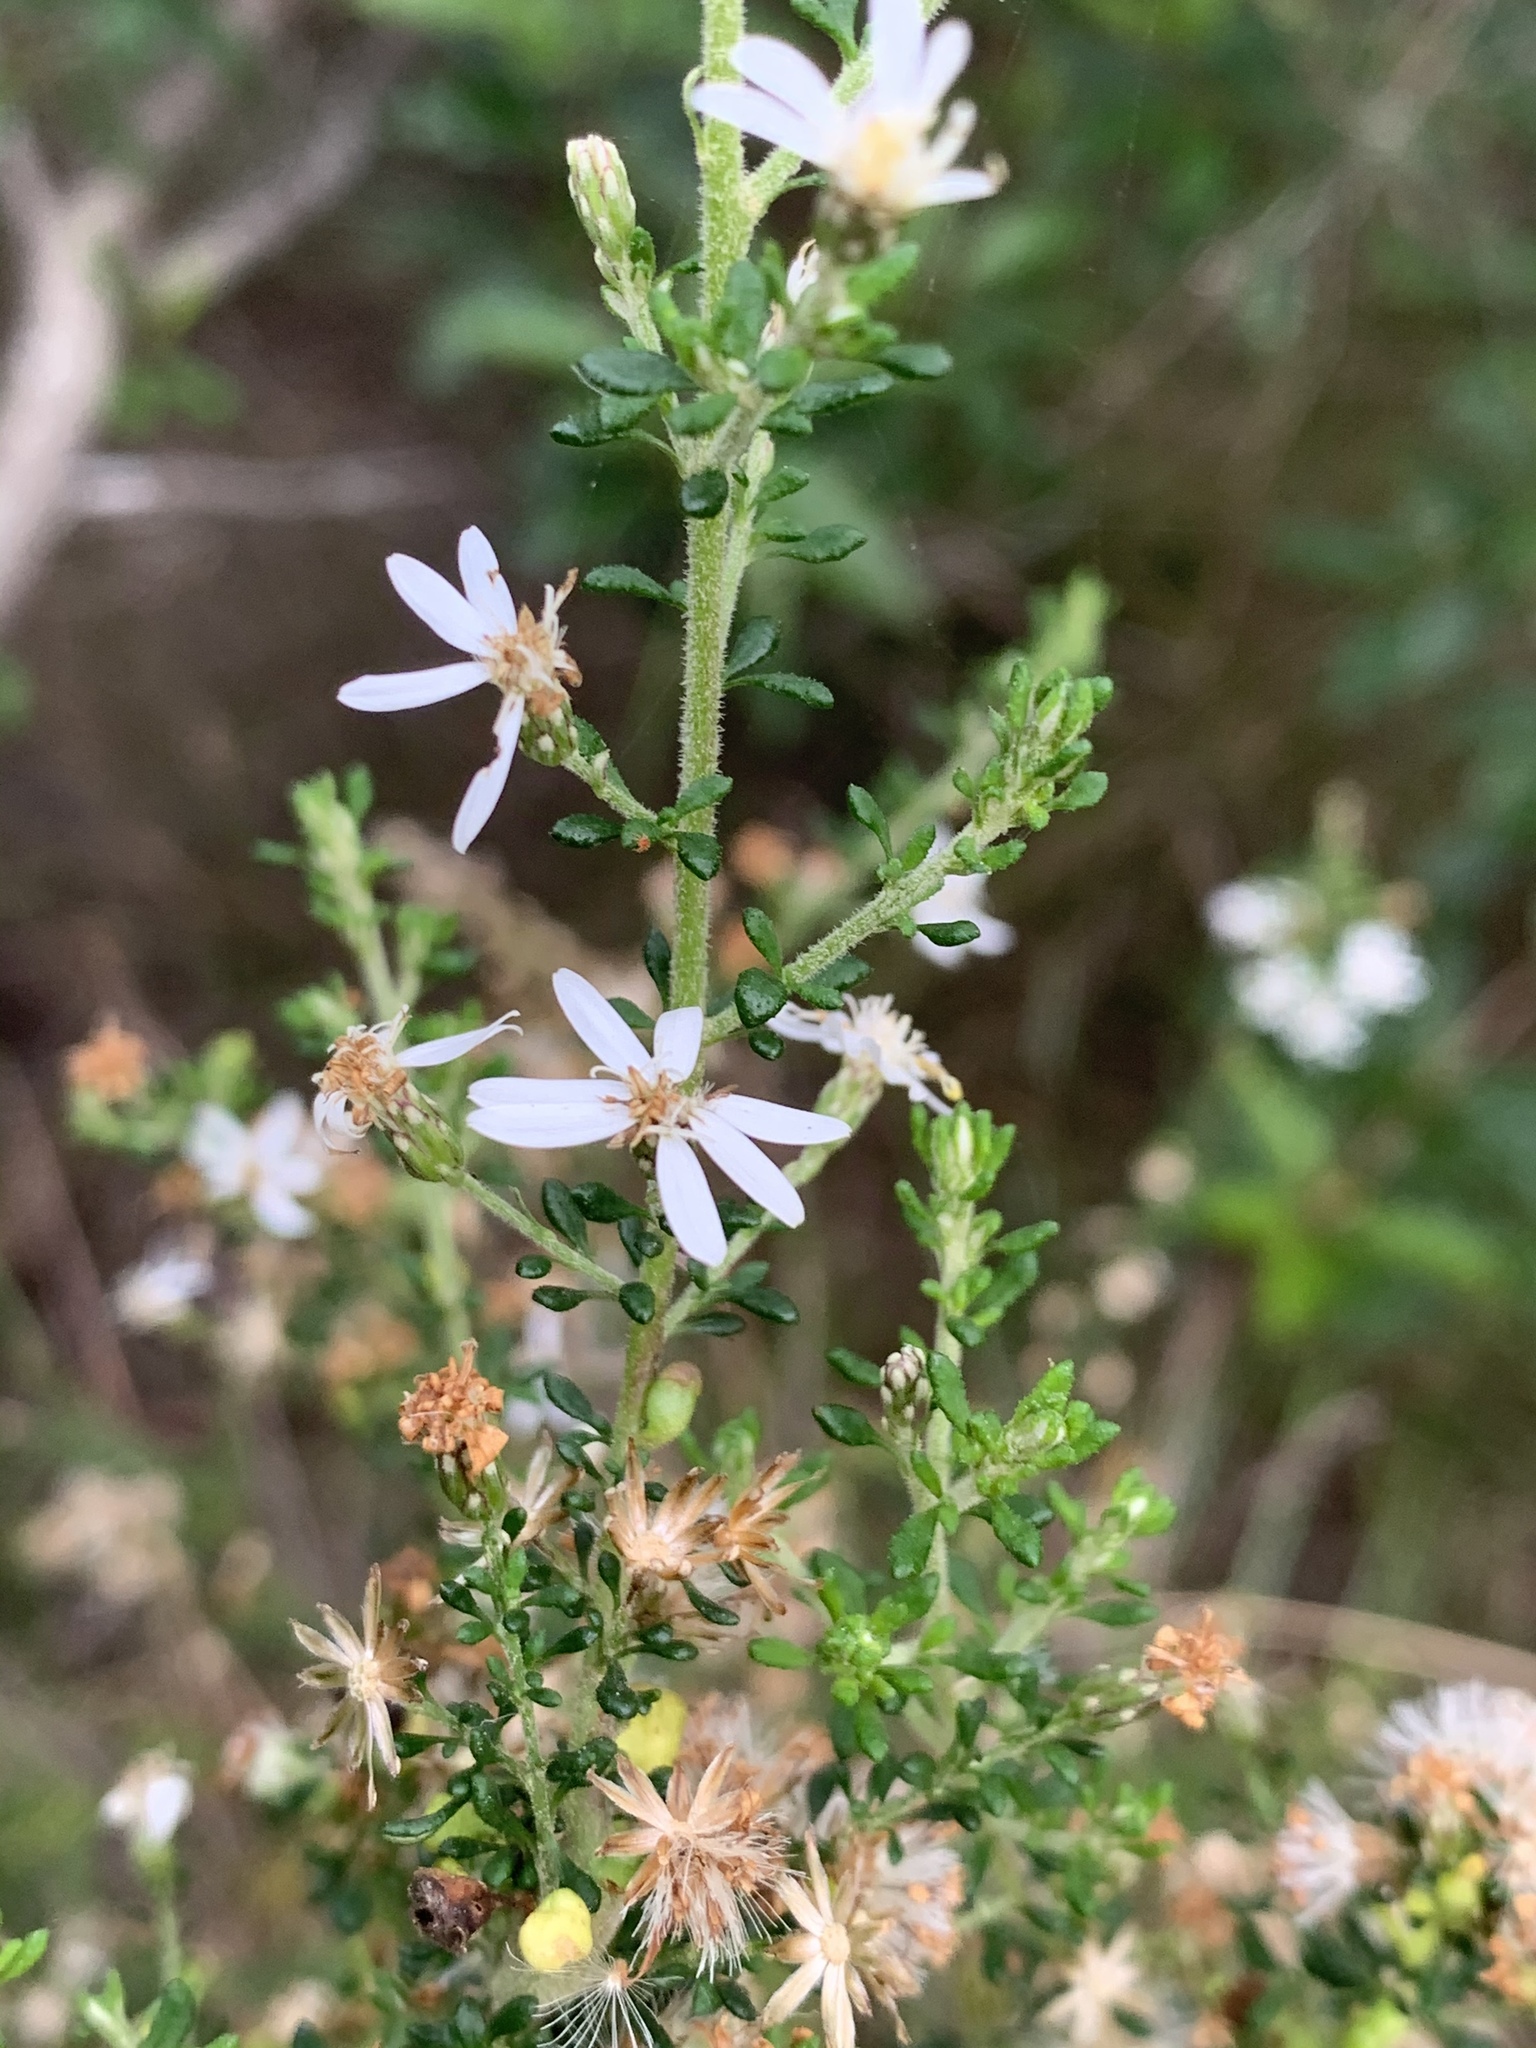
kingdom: Plantae
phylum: Tracheophyta
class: Magnoliopsida
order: Asterales
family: Asteraceae
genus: Olearia
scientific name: Olearia microphylla
